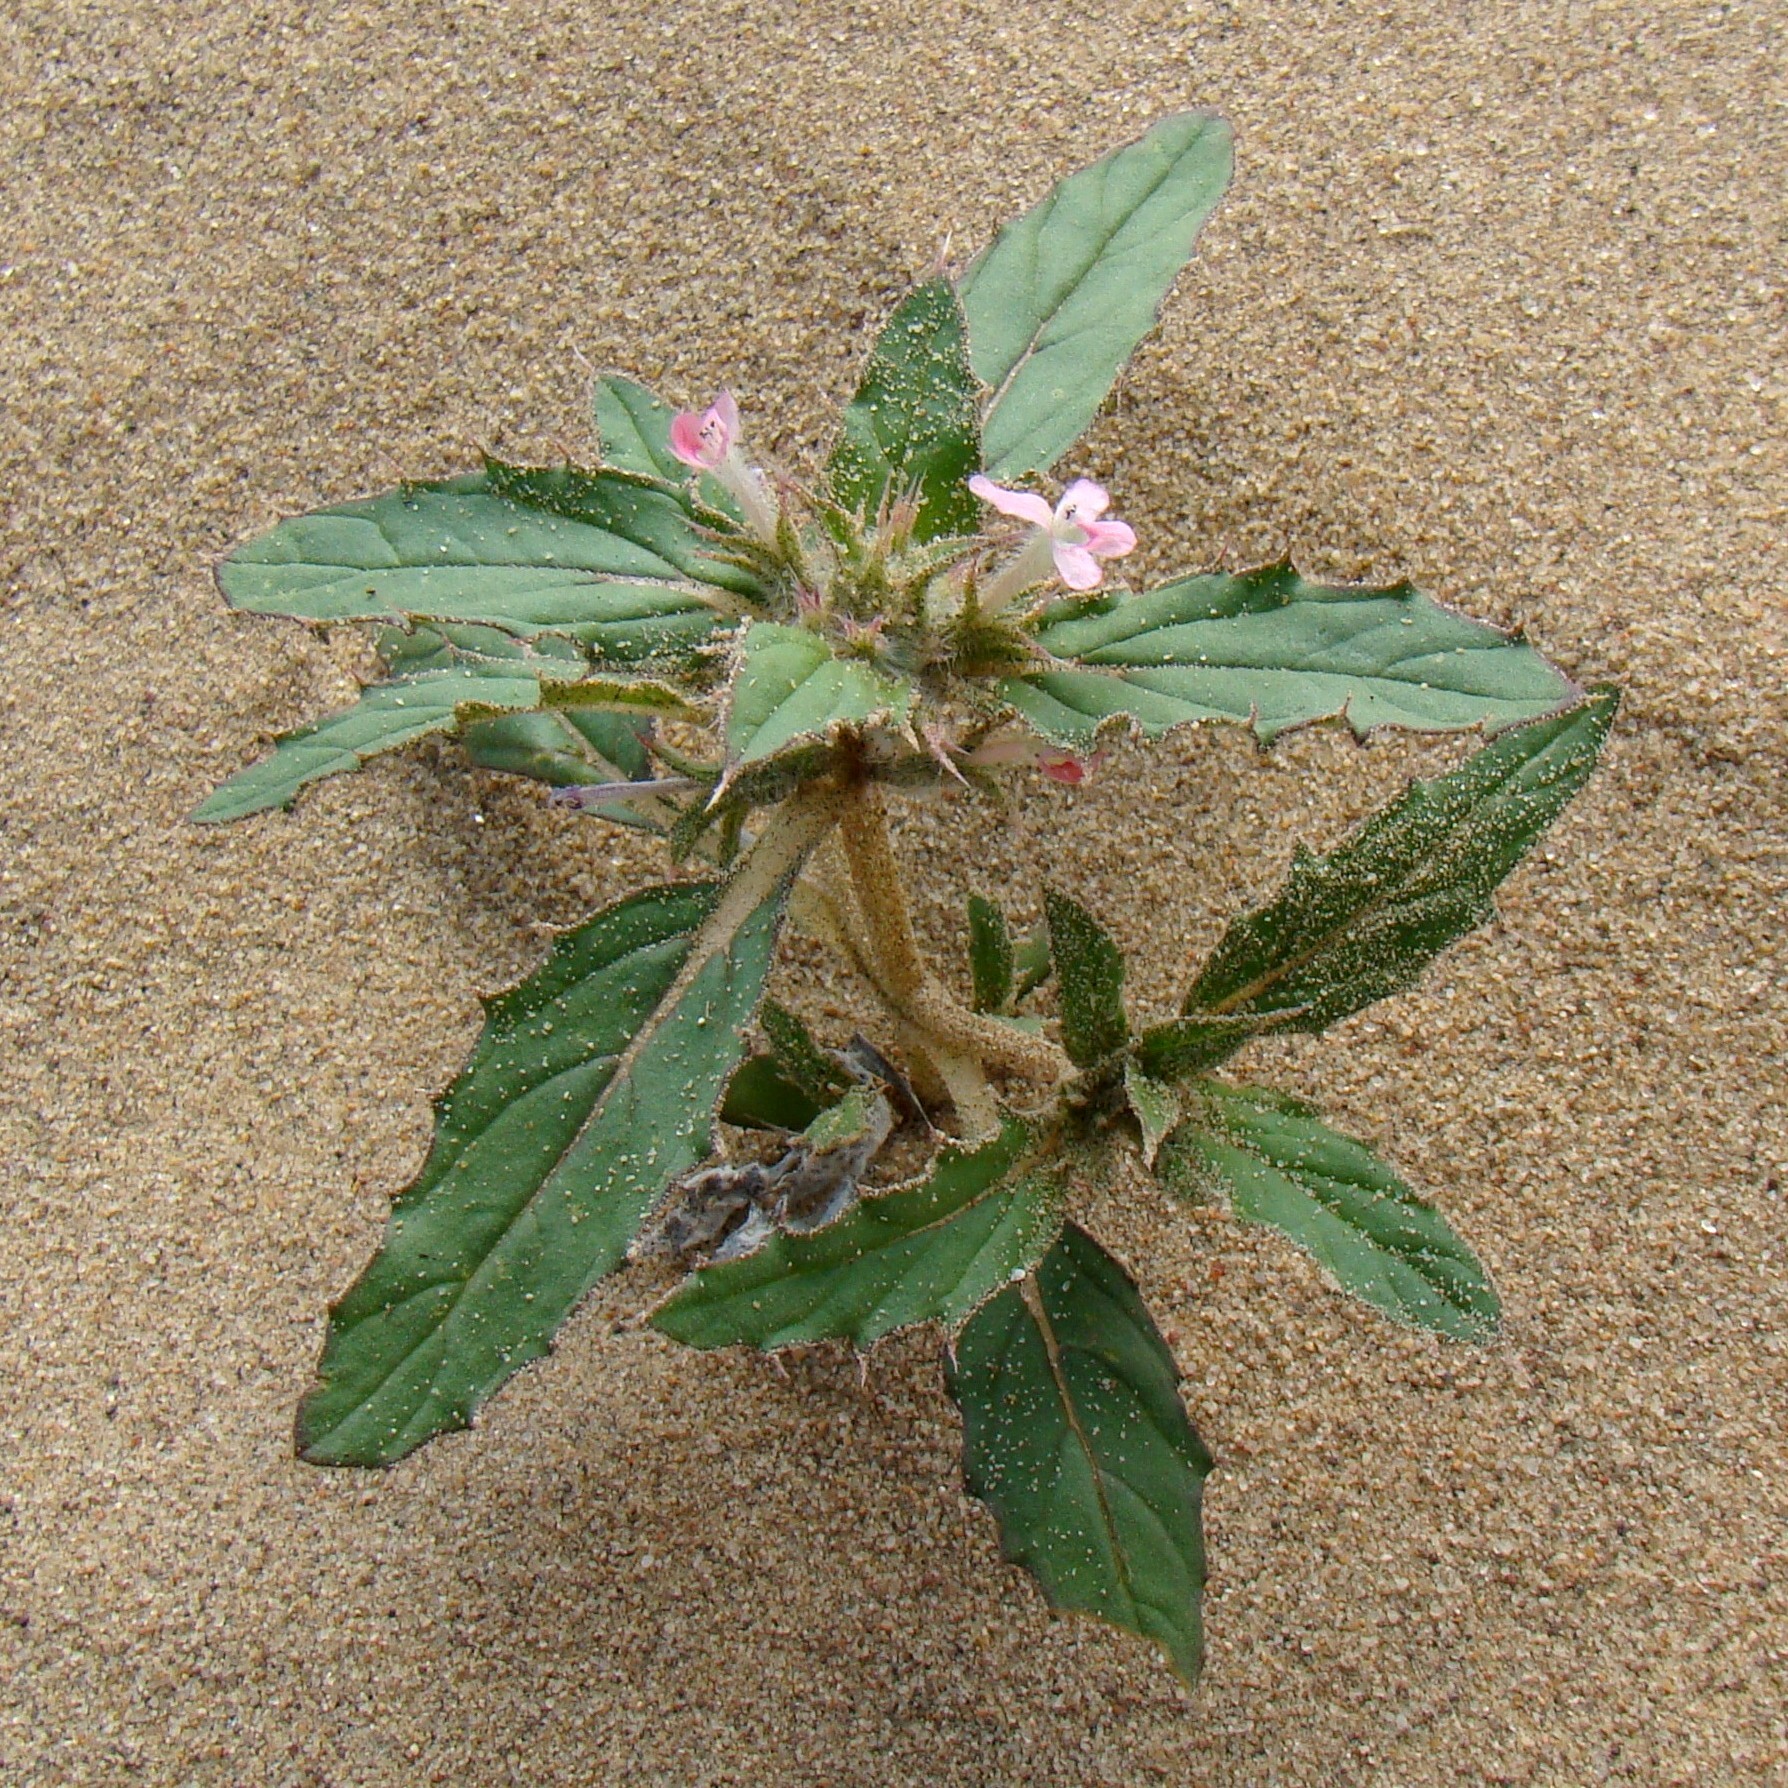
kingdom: Plantae
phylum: Tracheophyta
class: Magnoliopsida
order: Lamiales
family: Lamiaceae
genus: Chamaesphacos
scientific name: Chamaesphacos ilicifolius
